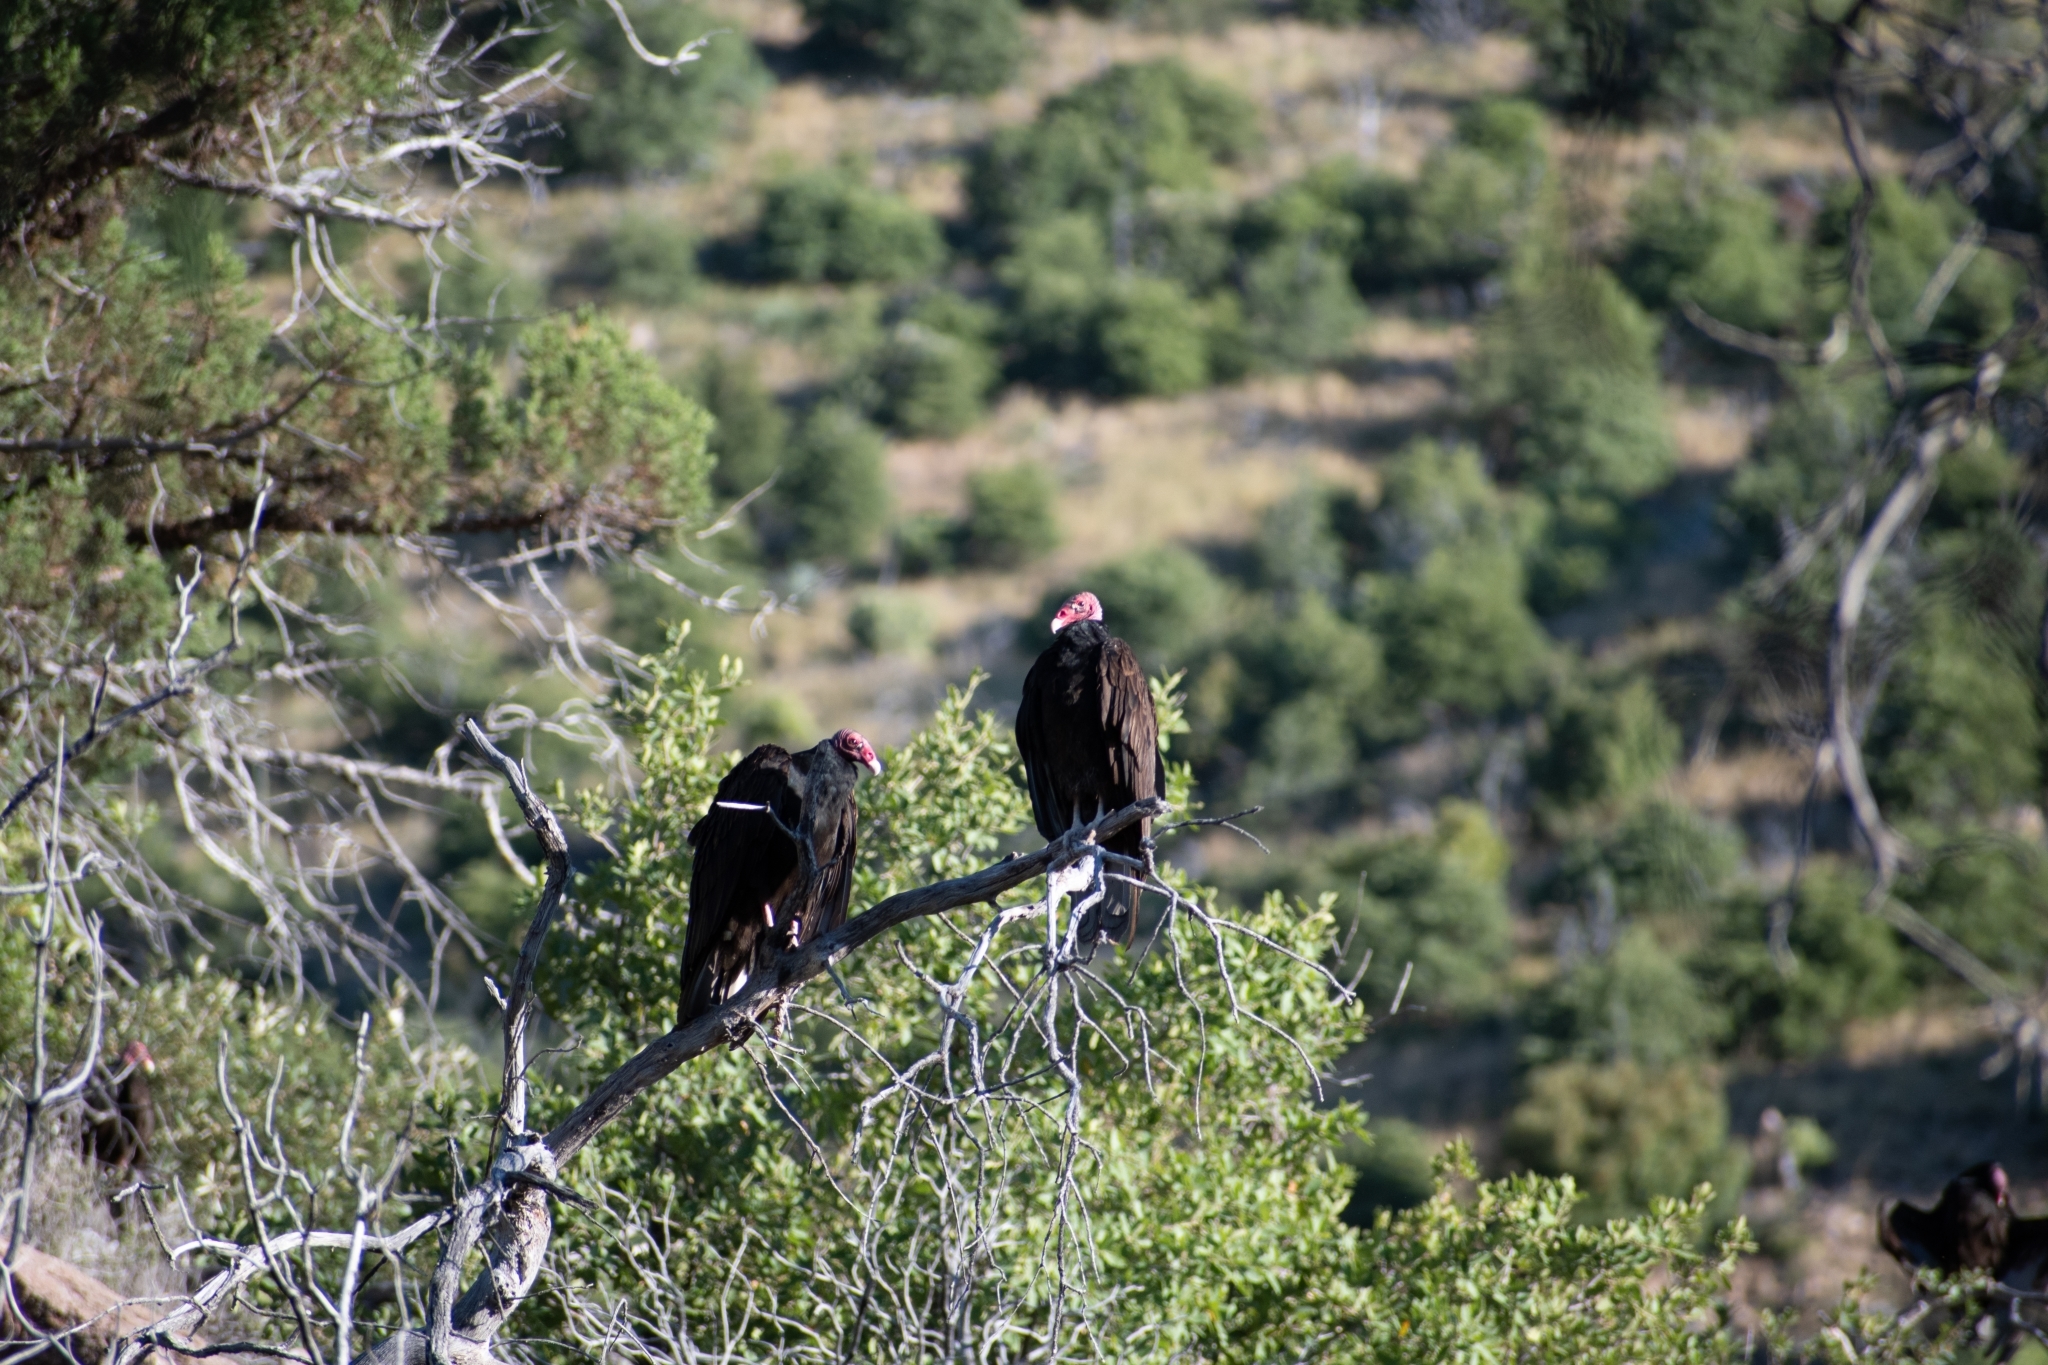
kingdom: Animalia
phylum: Chordata
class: Aves
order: Accipitriformes
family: Cathartidae
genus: Cathartes
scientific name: Cathartes aura
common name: Turkey vulture
